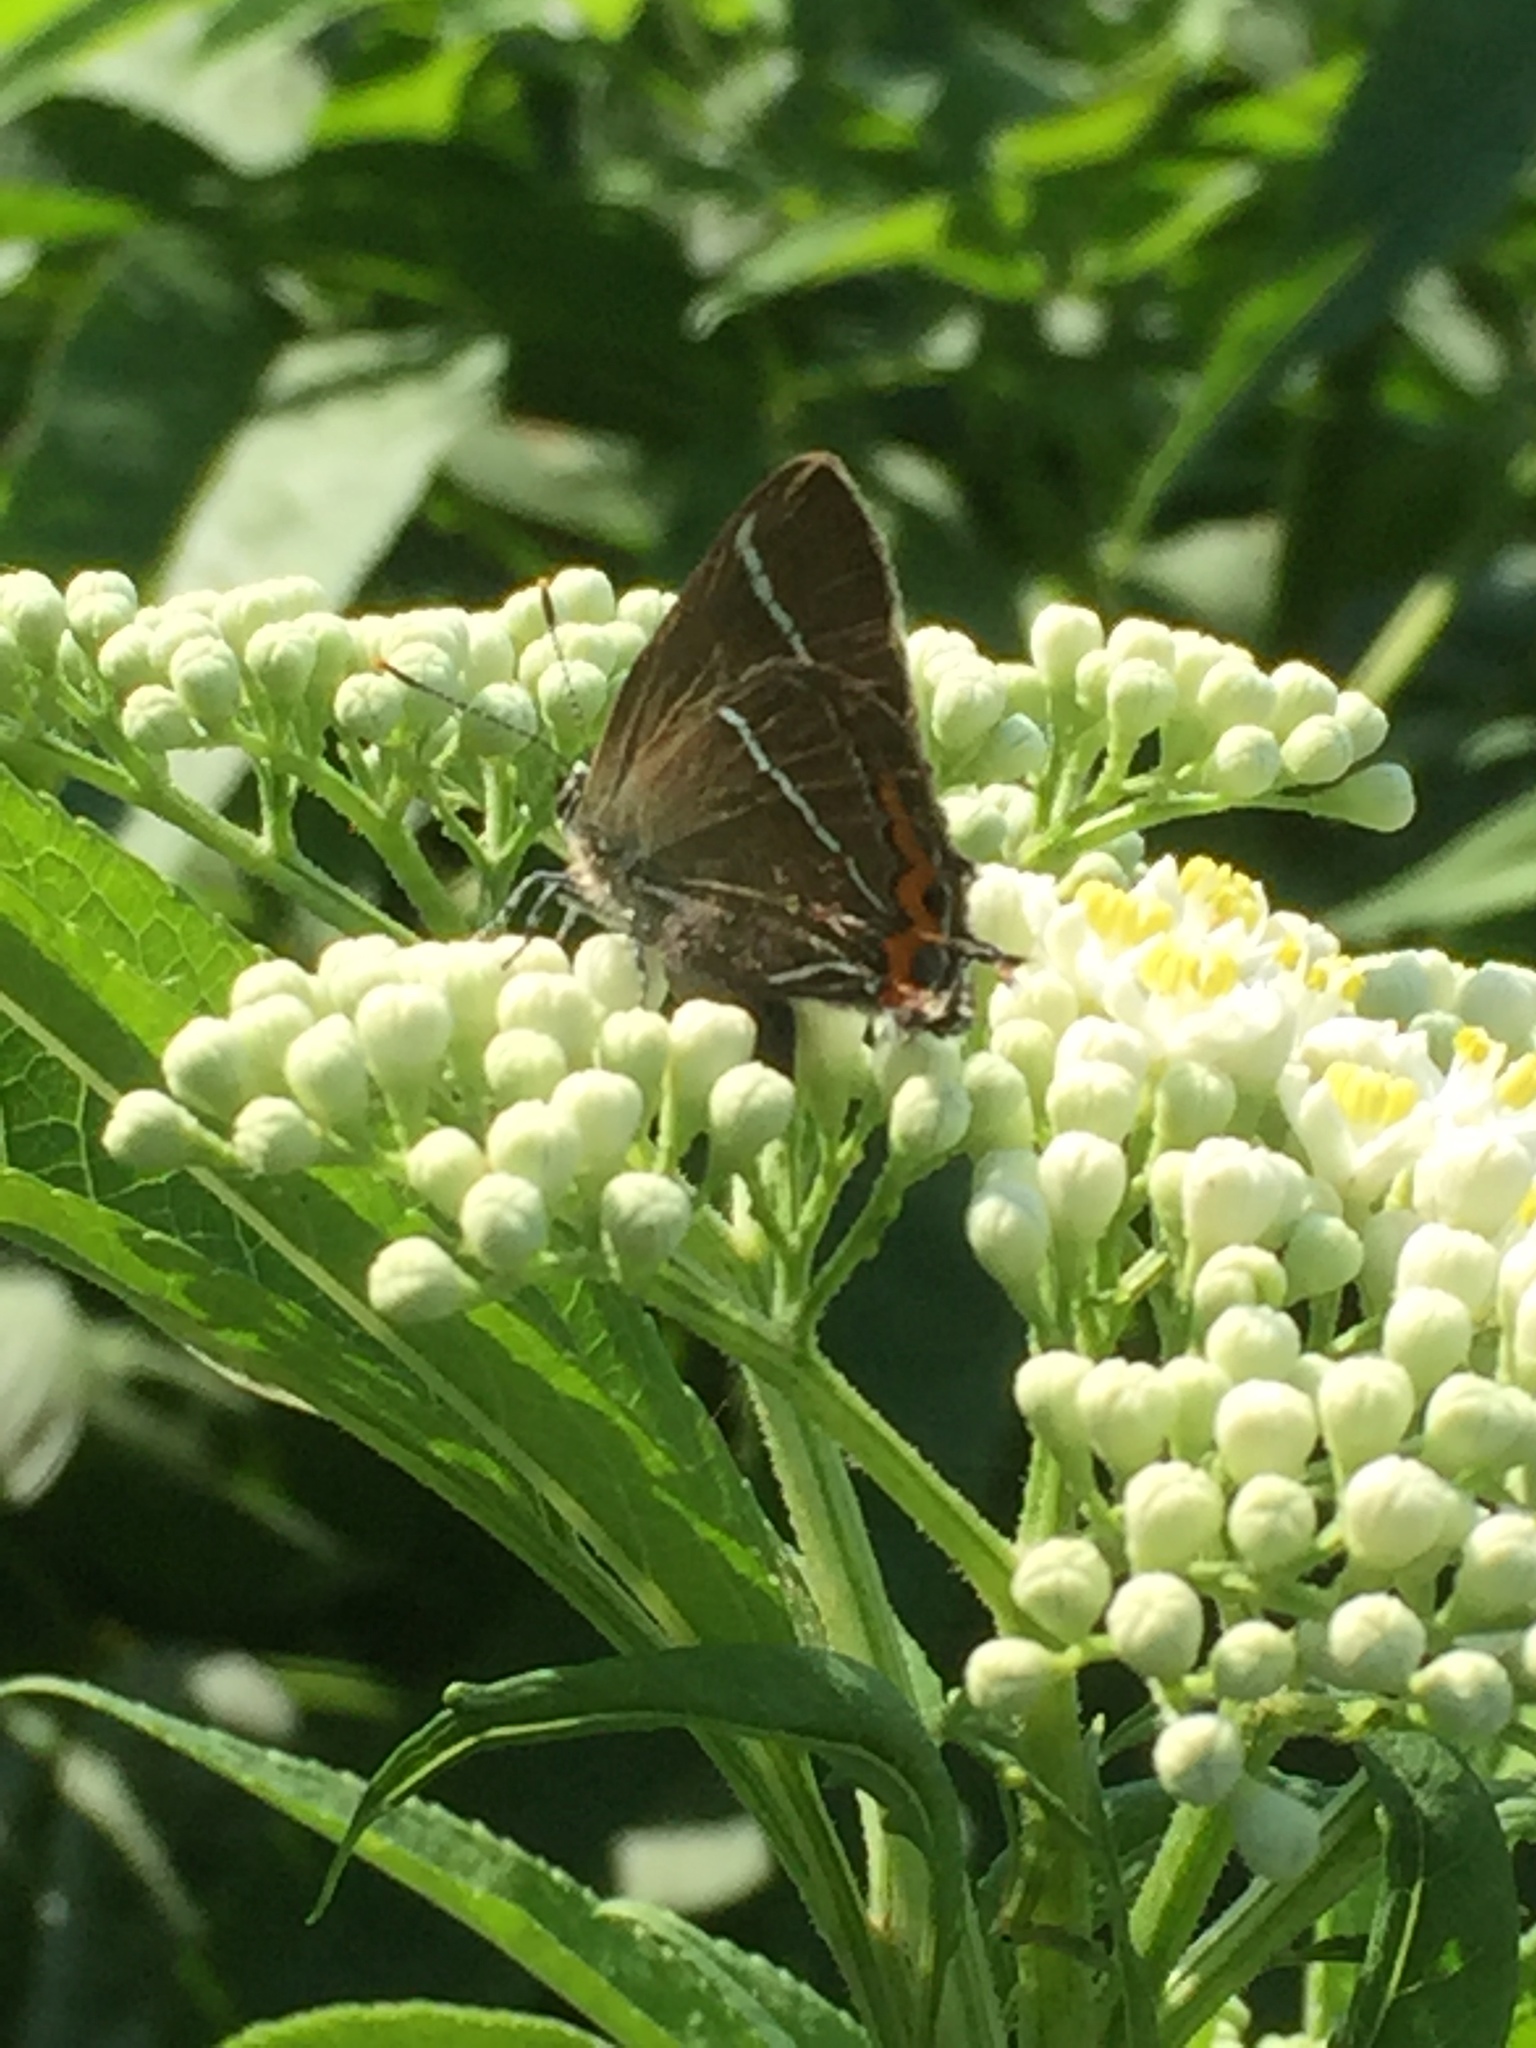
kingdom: Animalia
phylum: Arthropoda
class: Insecta
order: Lepidoptera
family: Lycaenidae
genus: Satyrium
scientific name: Satyrium w-album
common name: White-letter hairstreak
